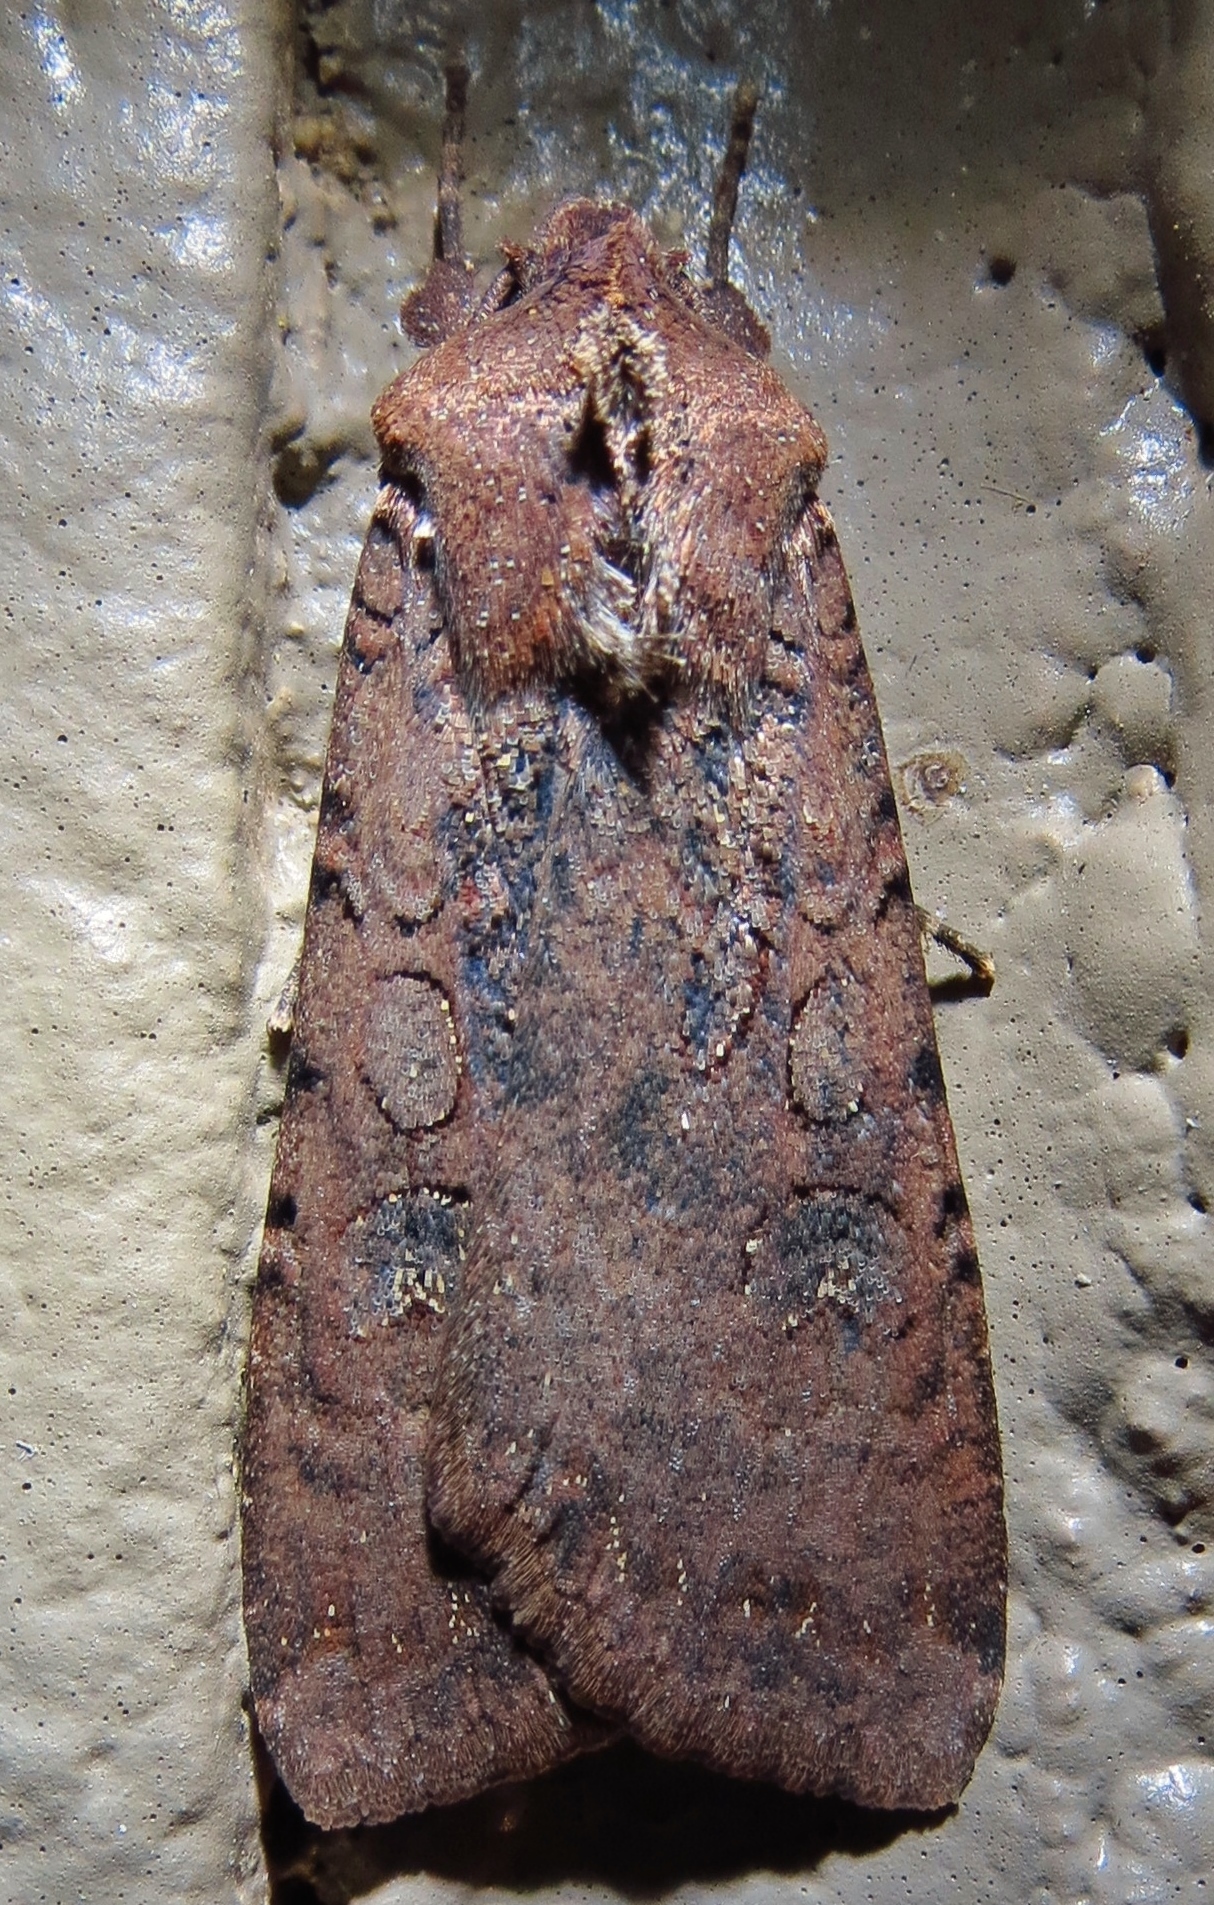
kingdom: Animalia
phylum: Arthropoda
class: Insecta
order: Lepidoptera
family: Noctuidae
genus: Peridroma
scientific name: Peridroma saucia
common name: Pearly underwing
